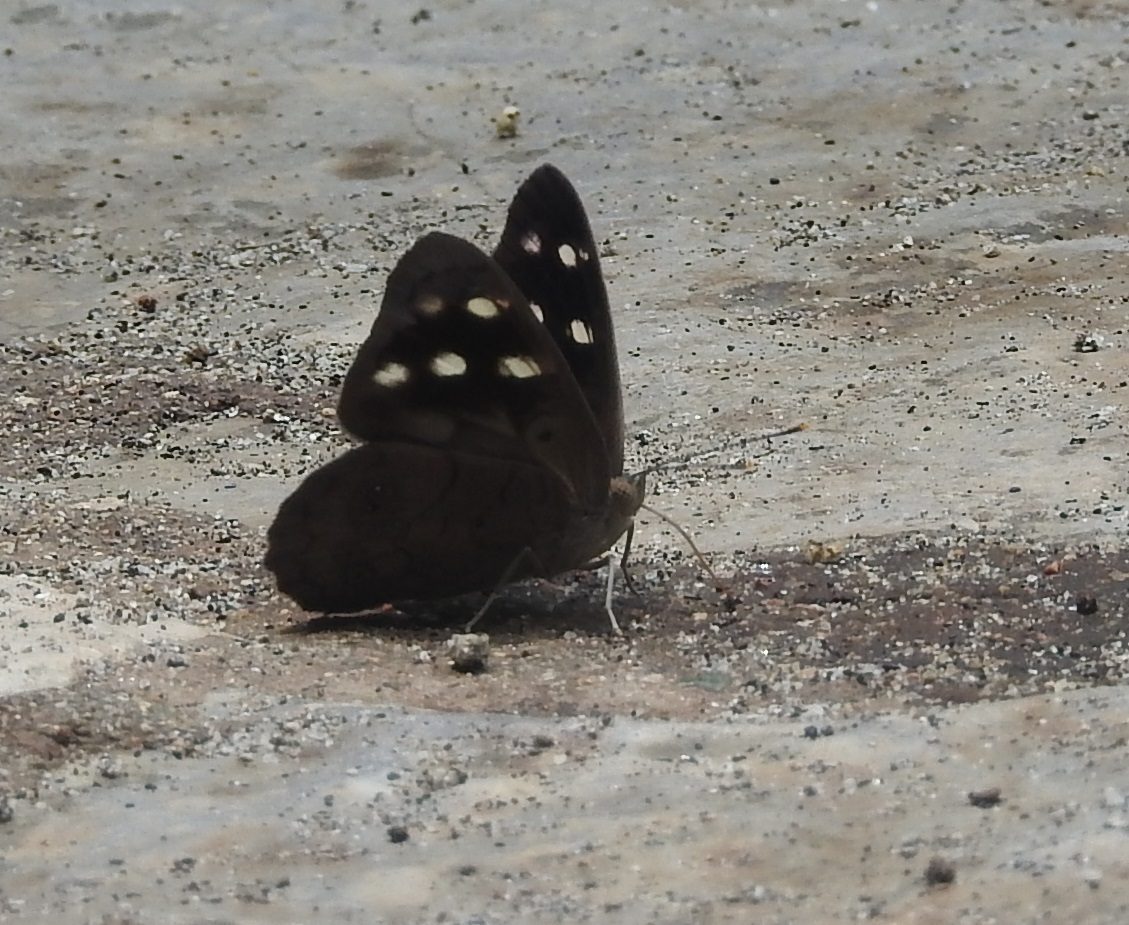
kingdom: Animalia
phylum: Arthropoda
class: Insecta
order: Lepidoptera
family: Nymphalidae
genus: Eunica
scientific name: Eunica monima
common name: Dingy purplewing
